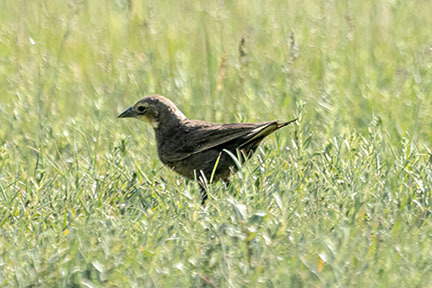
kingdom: Animalia
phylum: Chordata
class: Aves
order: Passeriformes
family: Icteridae
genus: Xanthocephalus
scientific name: Xanthocephalus xanthocephalus
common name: Yellow-headed blackbird
